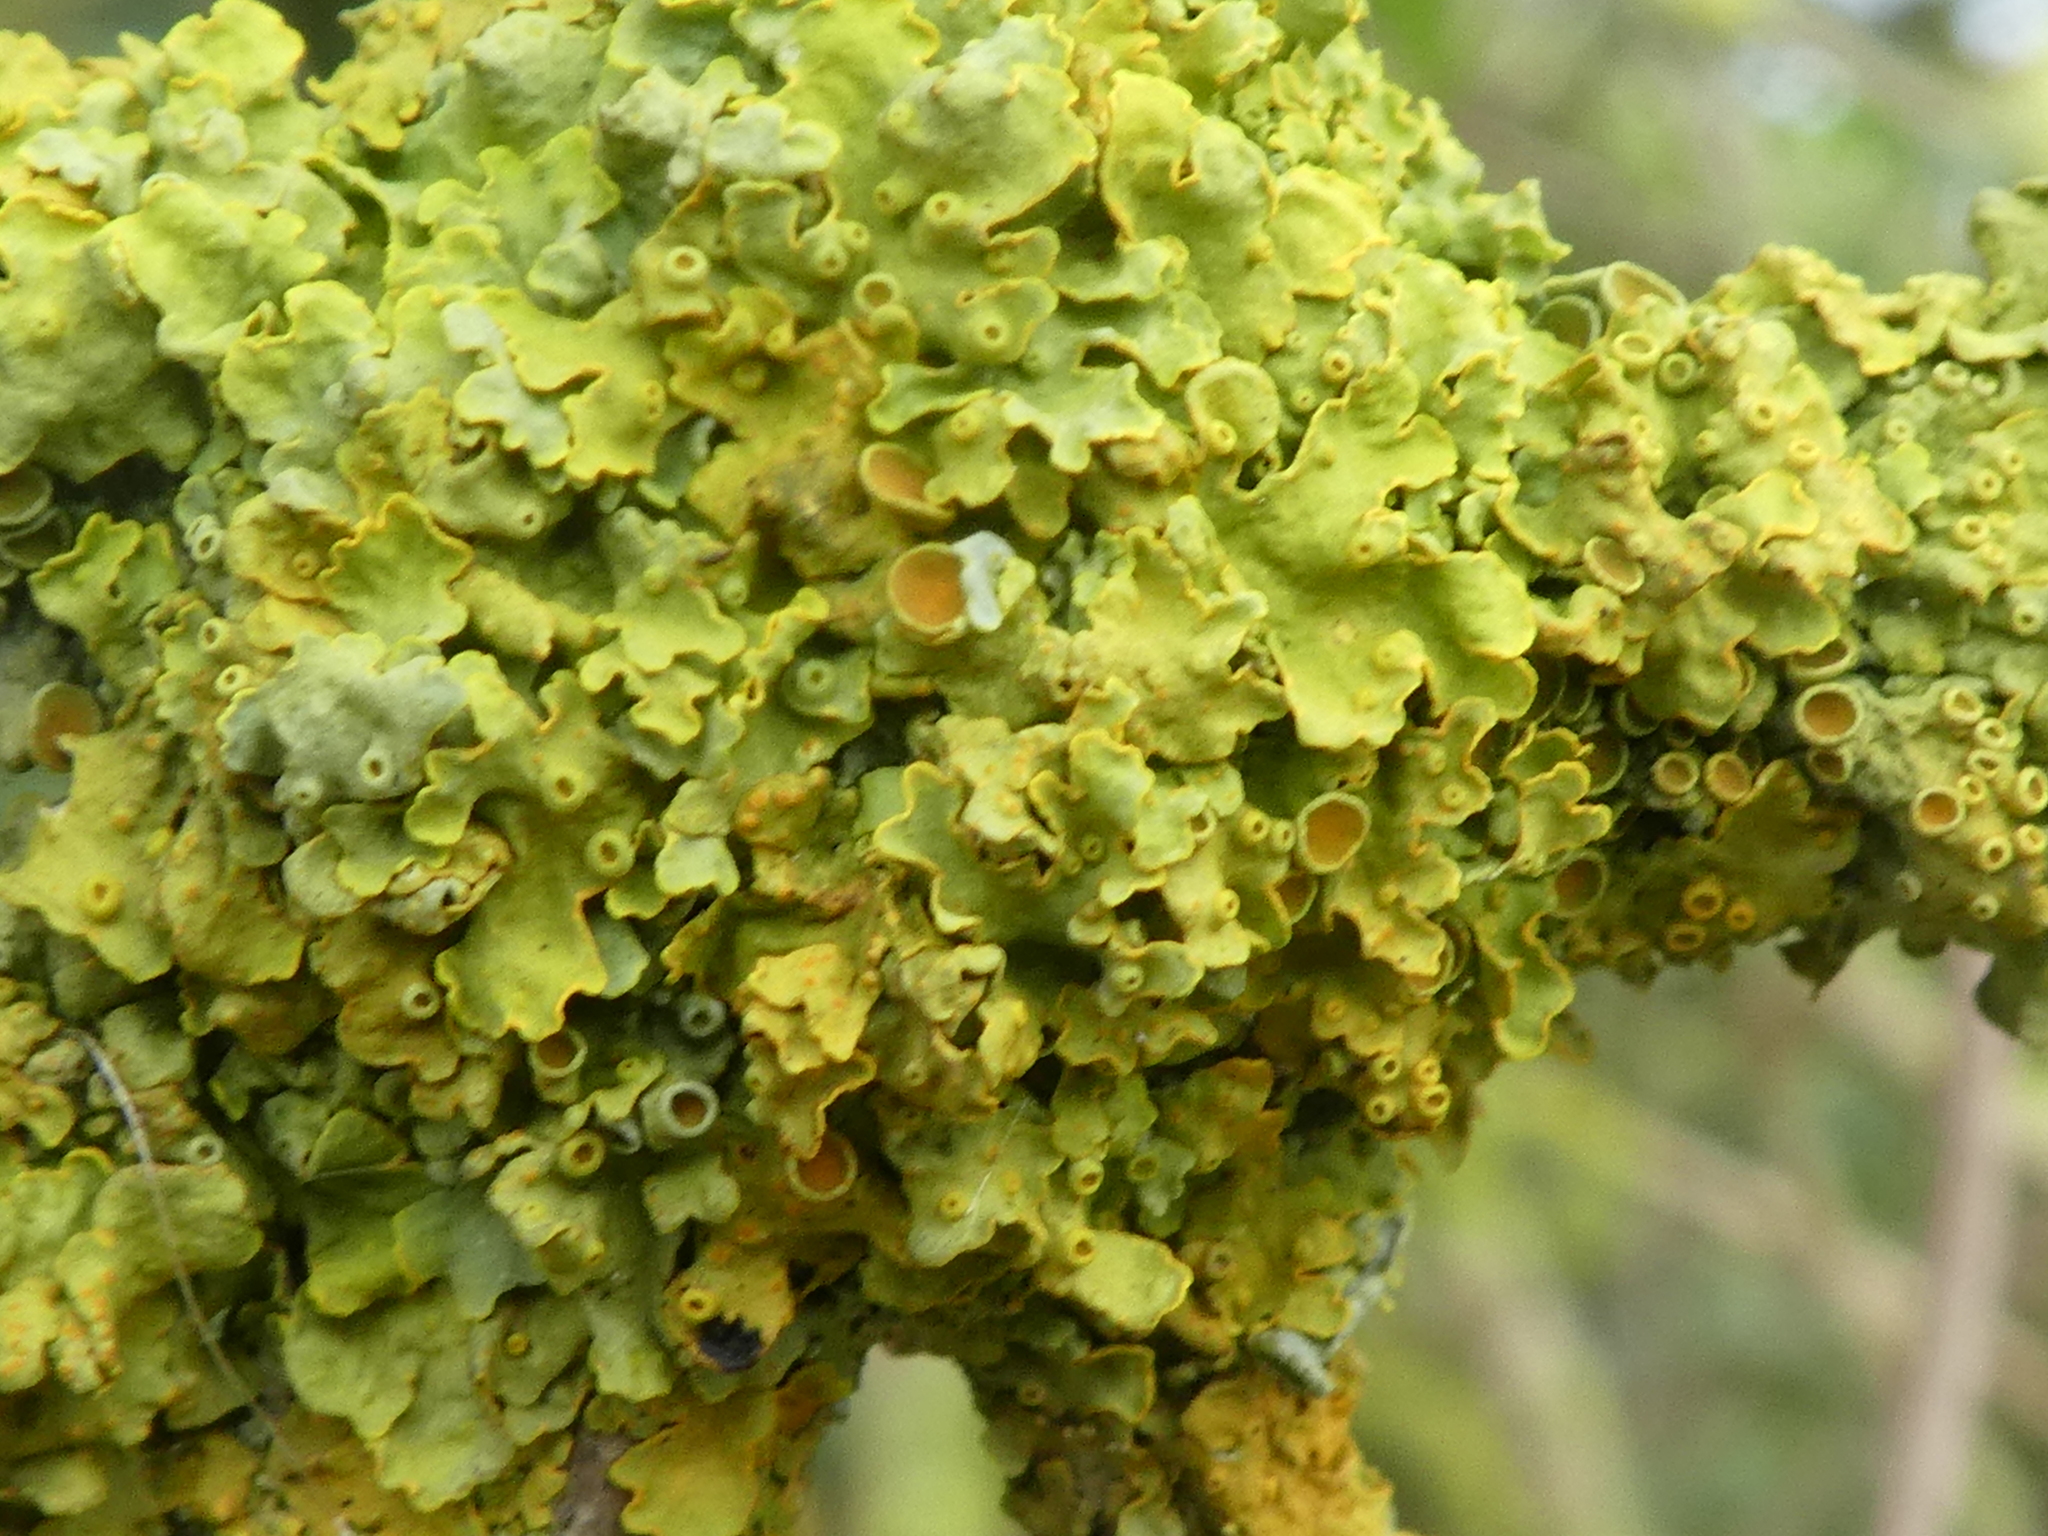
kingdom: Fungi
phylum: Ascomycota
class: Lecanoromycetes
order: Teloschistales
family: Teloschistaceae
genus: Xanthoria
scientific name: Xanthoria parietina
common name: Common orange lichen
